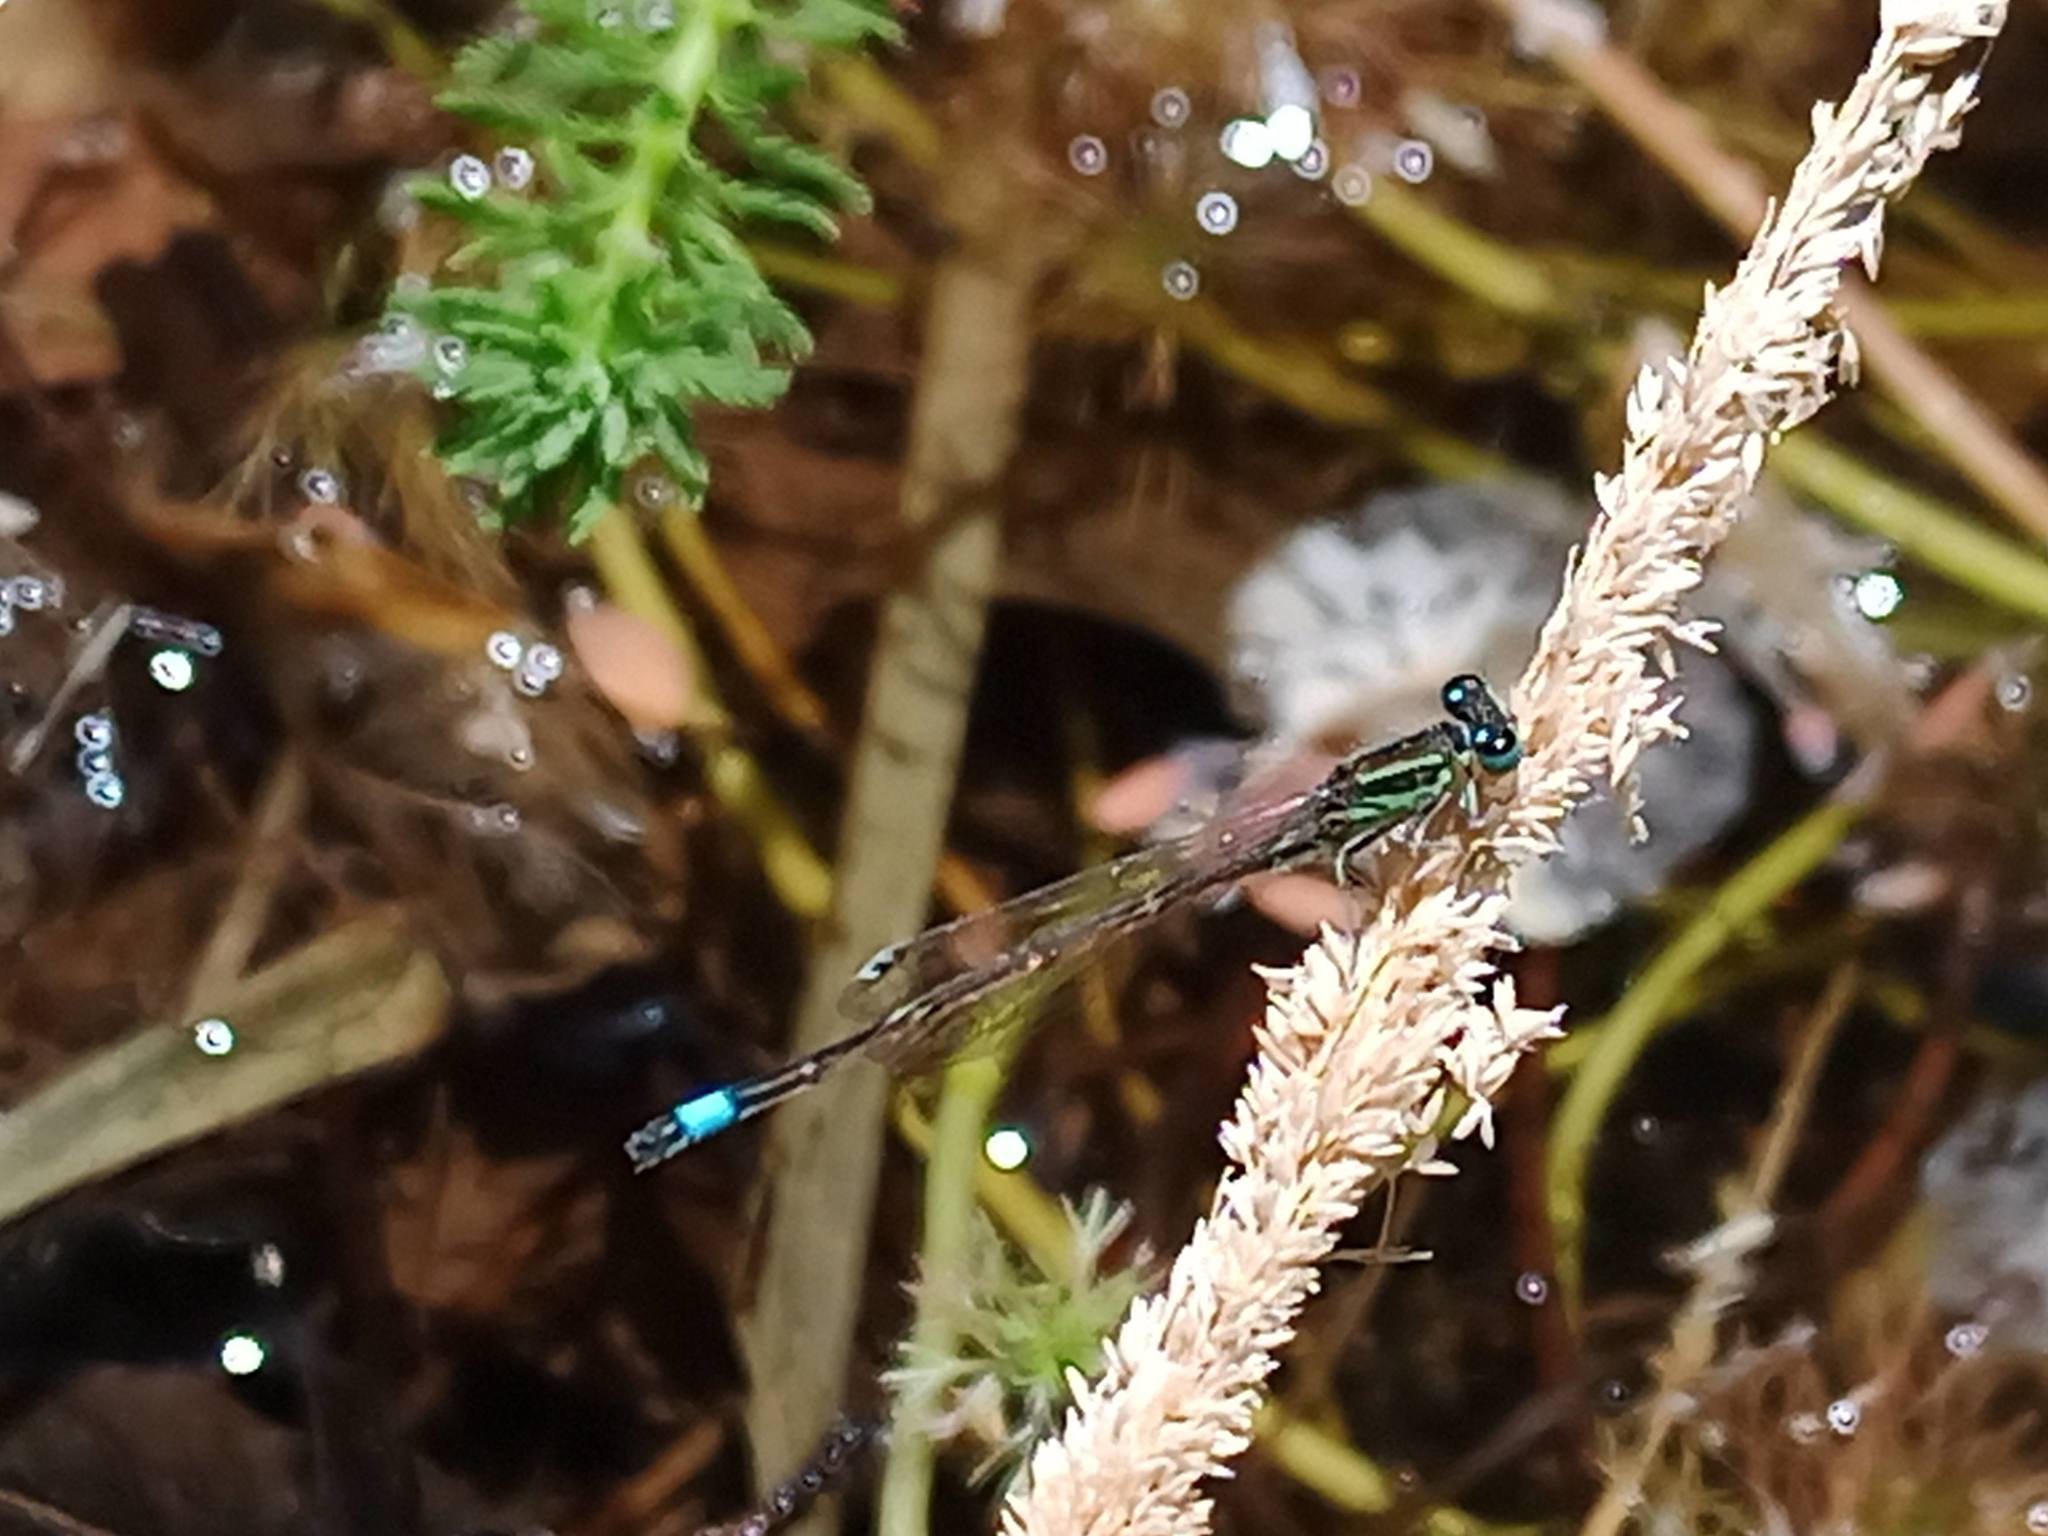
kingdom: Animalia
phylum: Arthropoda
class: Insecta
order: Odonata
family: Coenagrionidae
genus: Ischnura
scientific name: Ischnura saharensis
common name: Sahara bluetail
